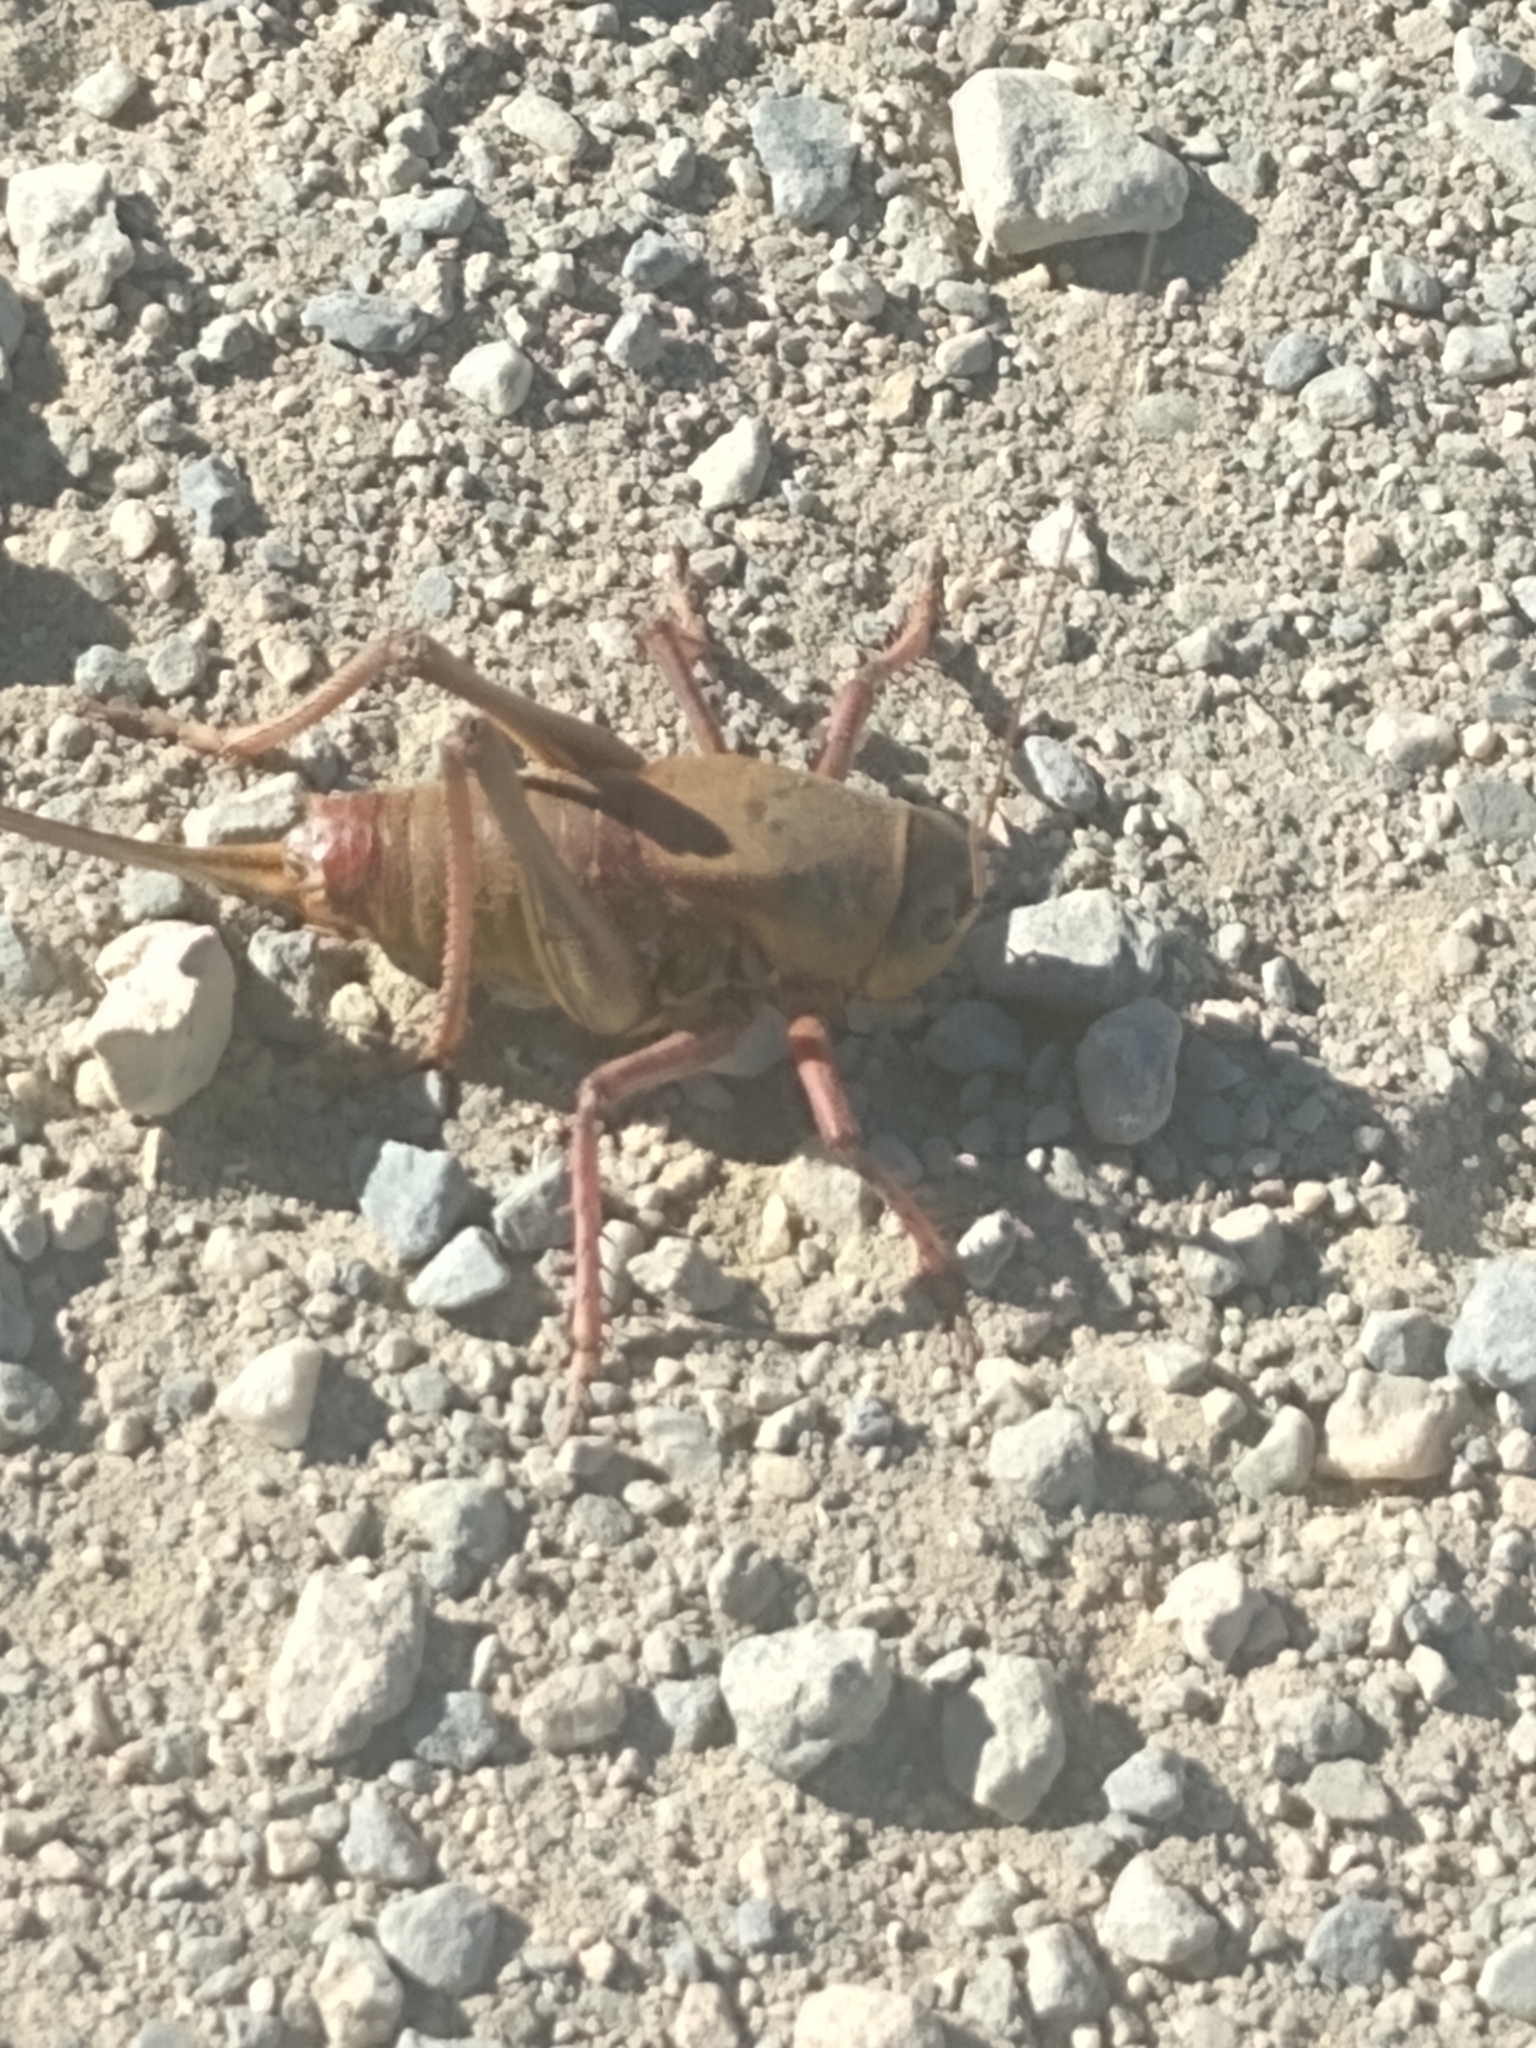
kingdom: Animalia
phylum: Arthropoda
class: Insecta
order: Orthoptera
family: Tettigoniidae
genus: Anabrus
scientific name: Anabrus simplex
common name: Mormon cricket
